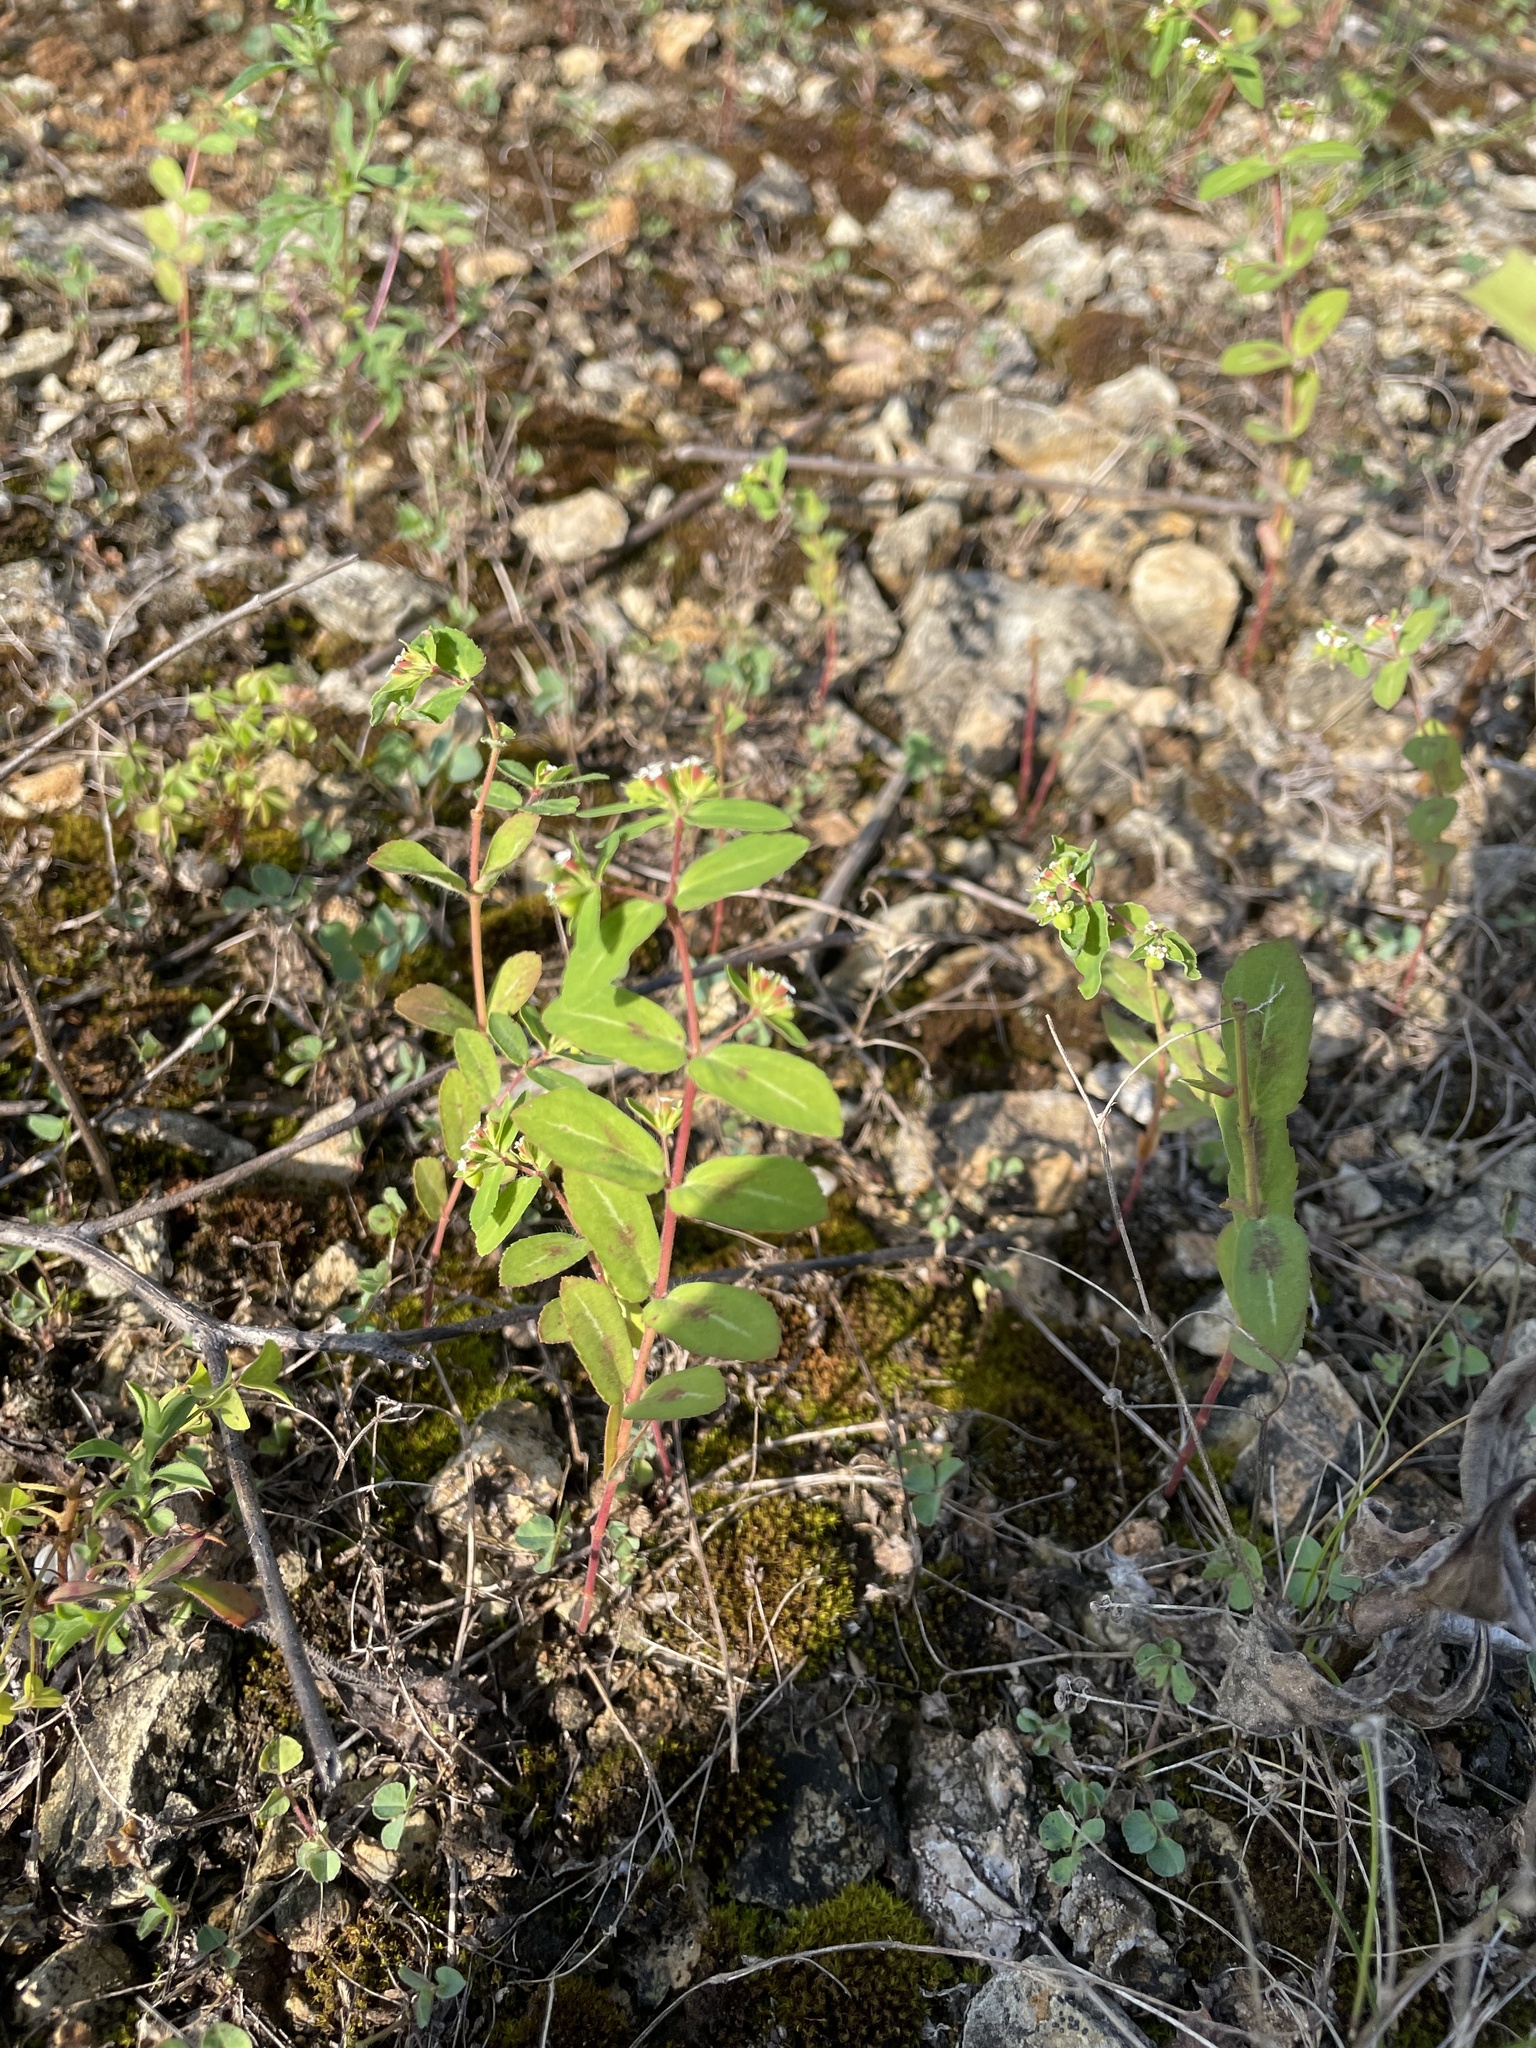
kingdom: Plantae
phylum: Tracheophyta
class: Magnoliopsida
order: Malpighiales
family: Euphorbiaceae
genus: Euphorbia
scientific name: Euphorbia nutans
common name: Eyebane
